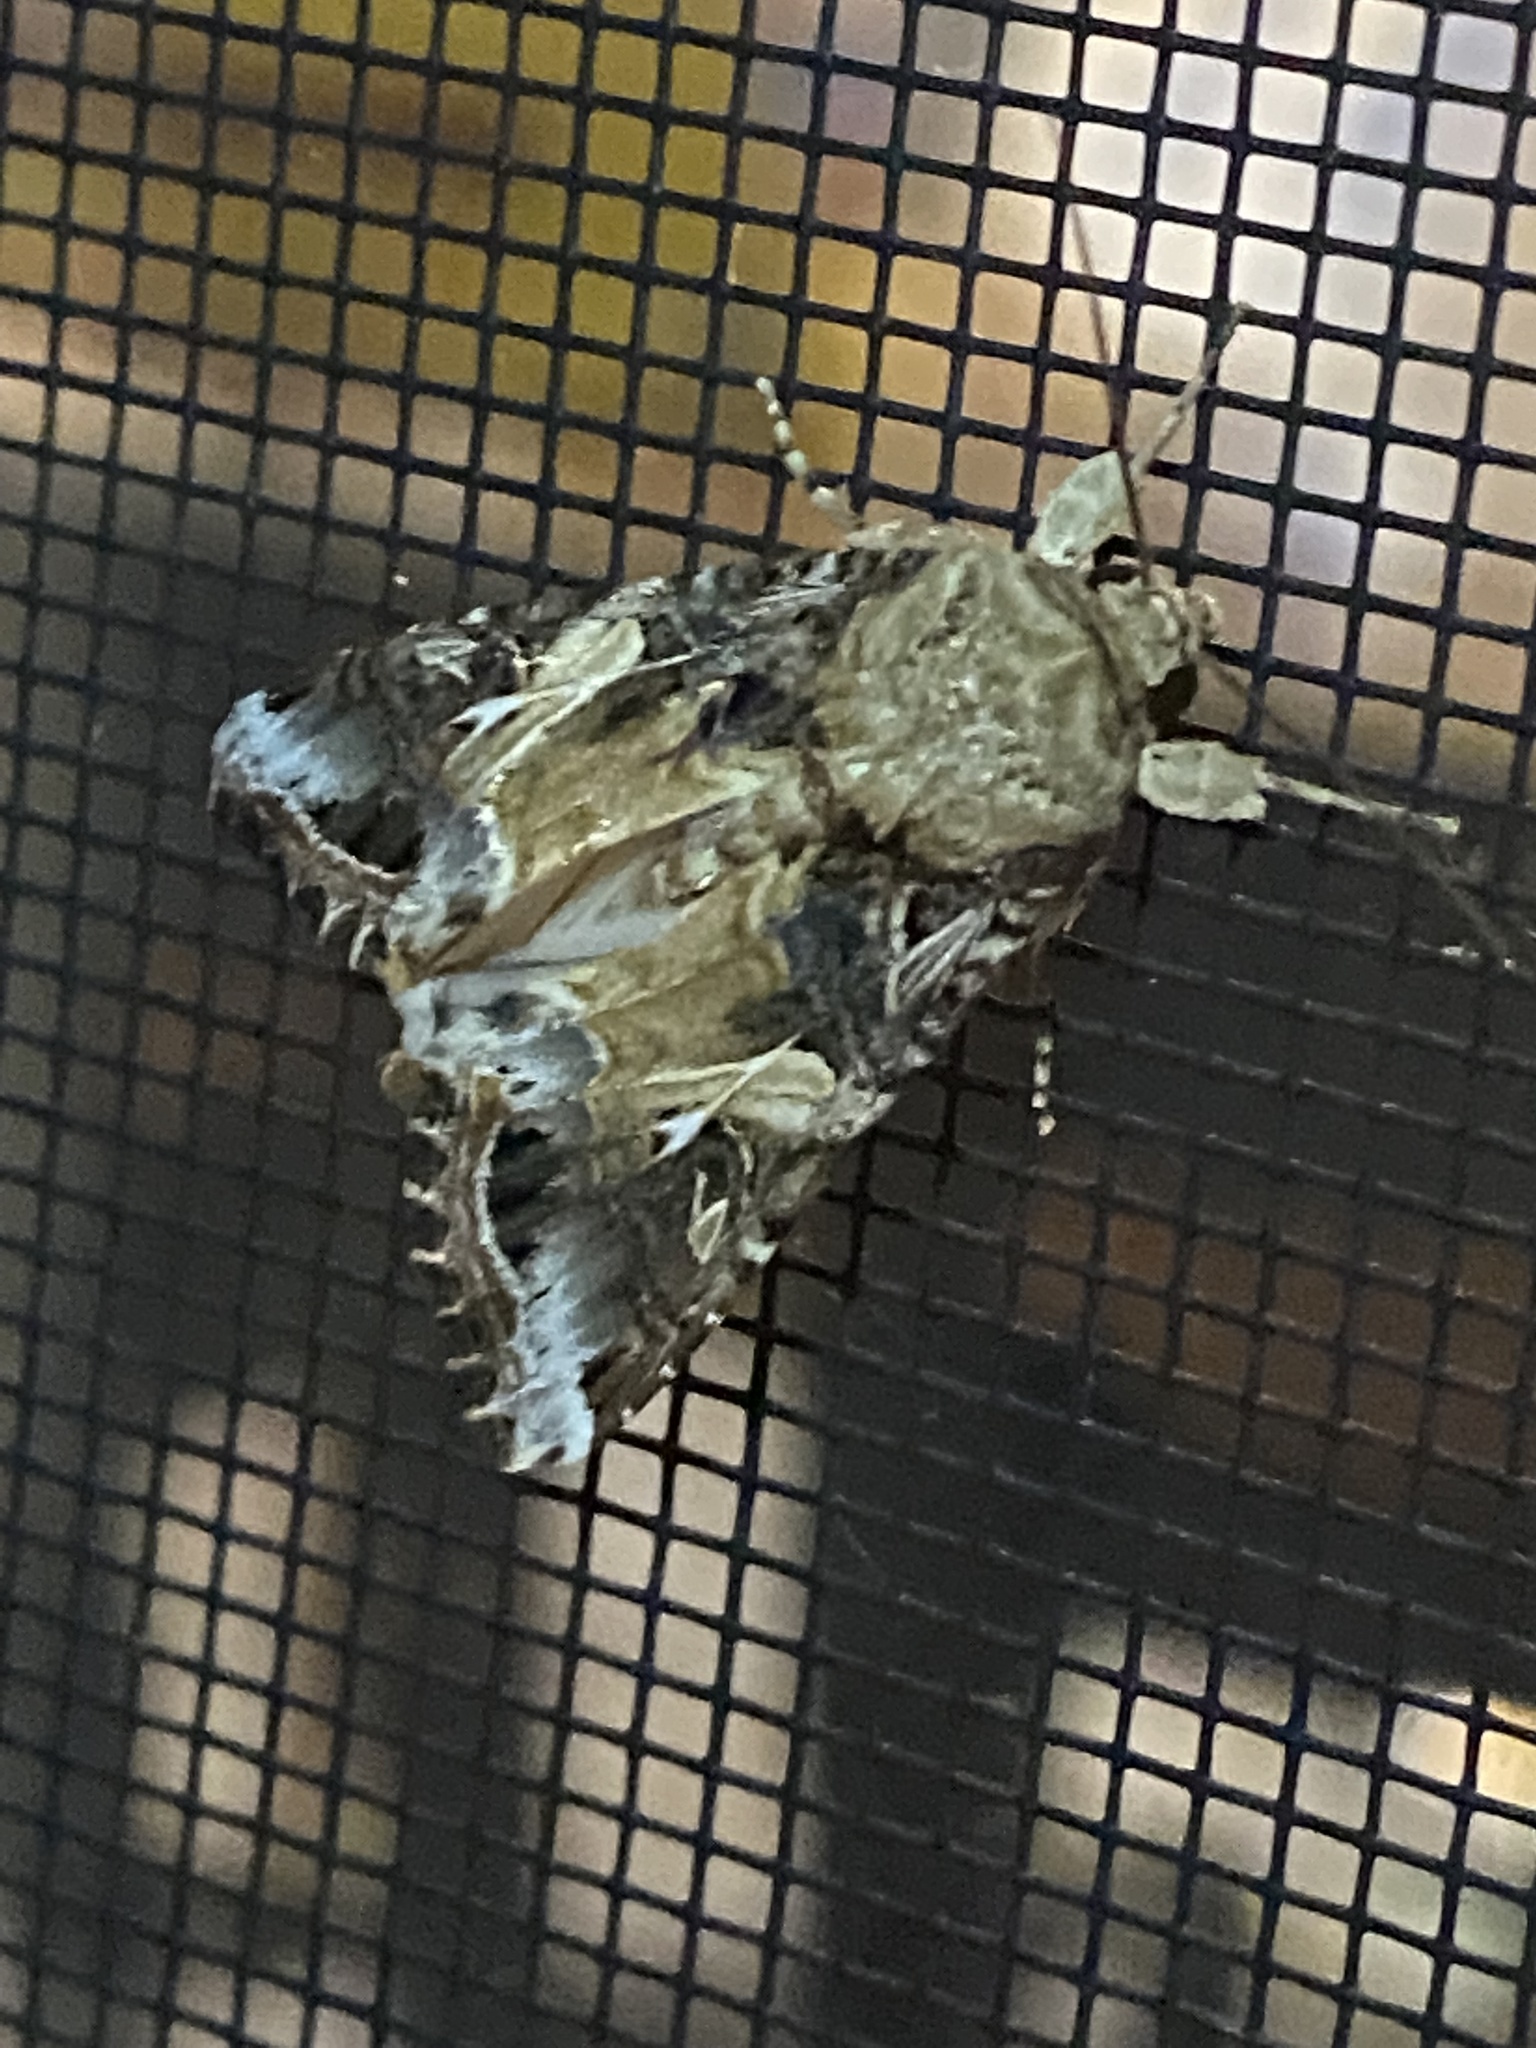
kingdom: Animalia
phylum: Arthropoda
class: Insecta
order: Lepidoptera
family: Noctuidae
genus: Spodoptera
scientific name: Spodoptera ornithogalli
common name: Yellow-striped armyworm
